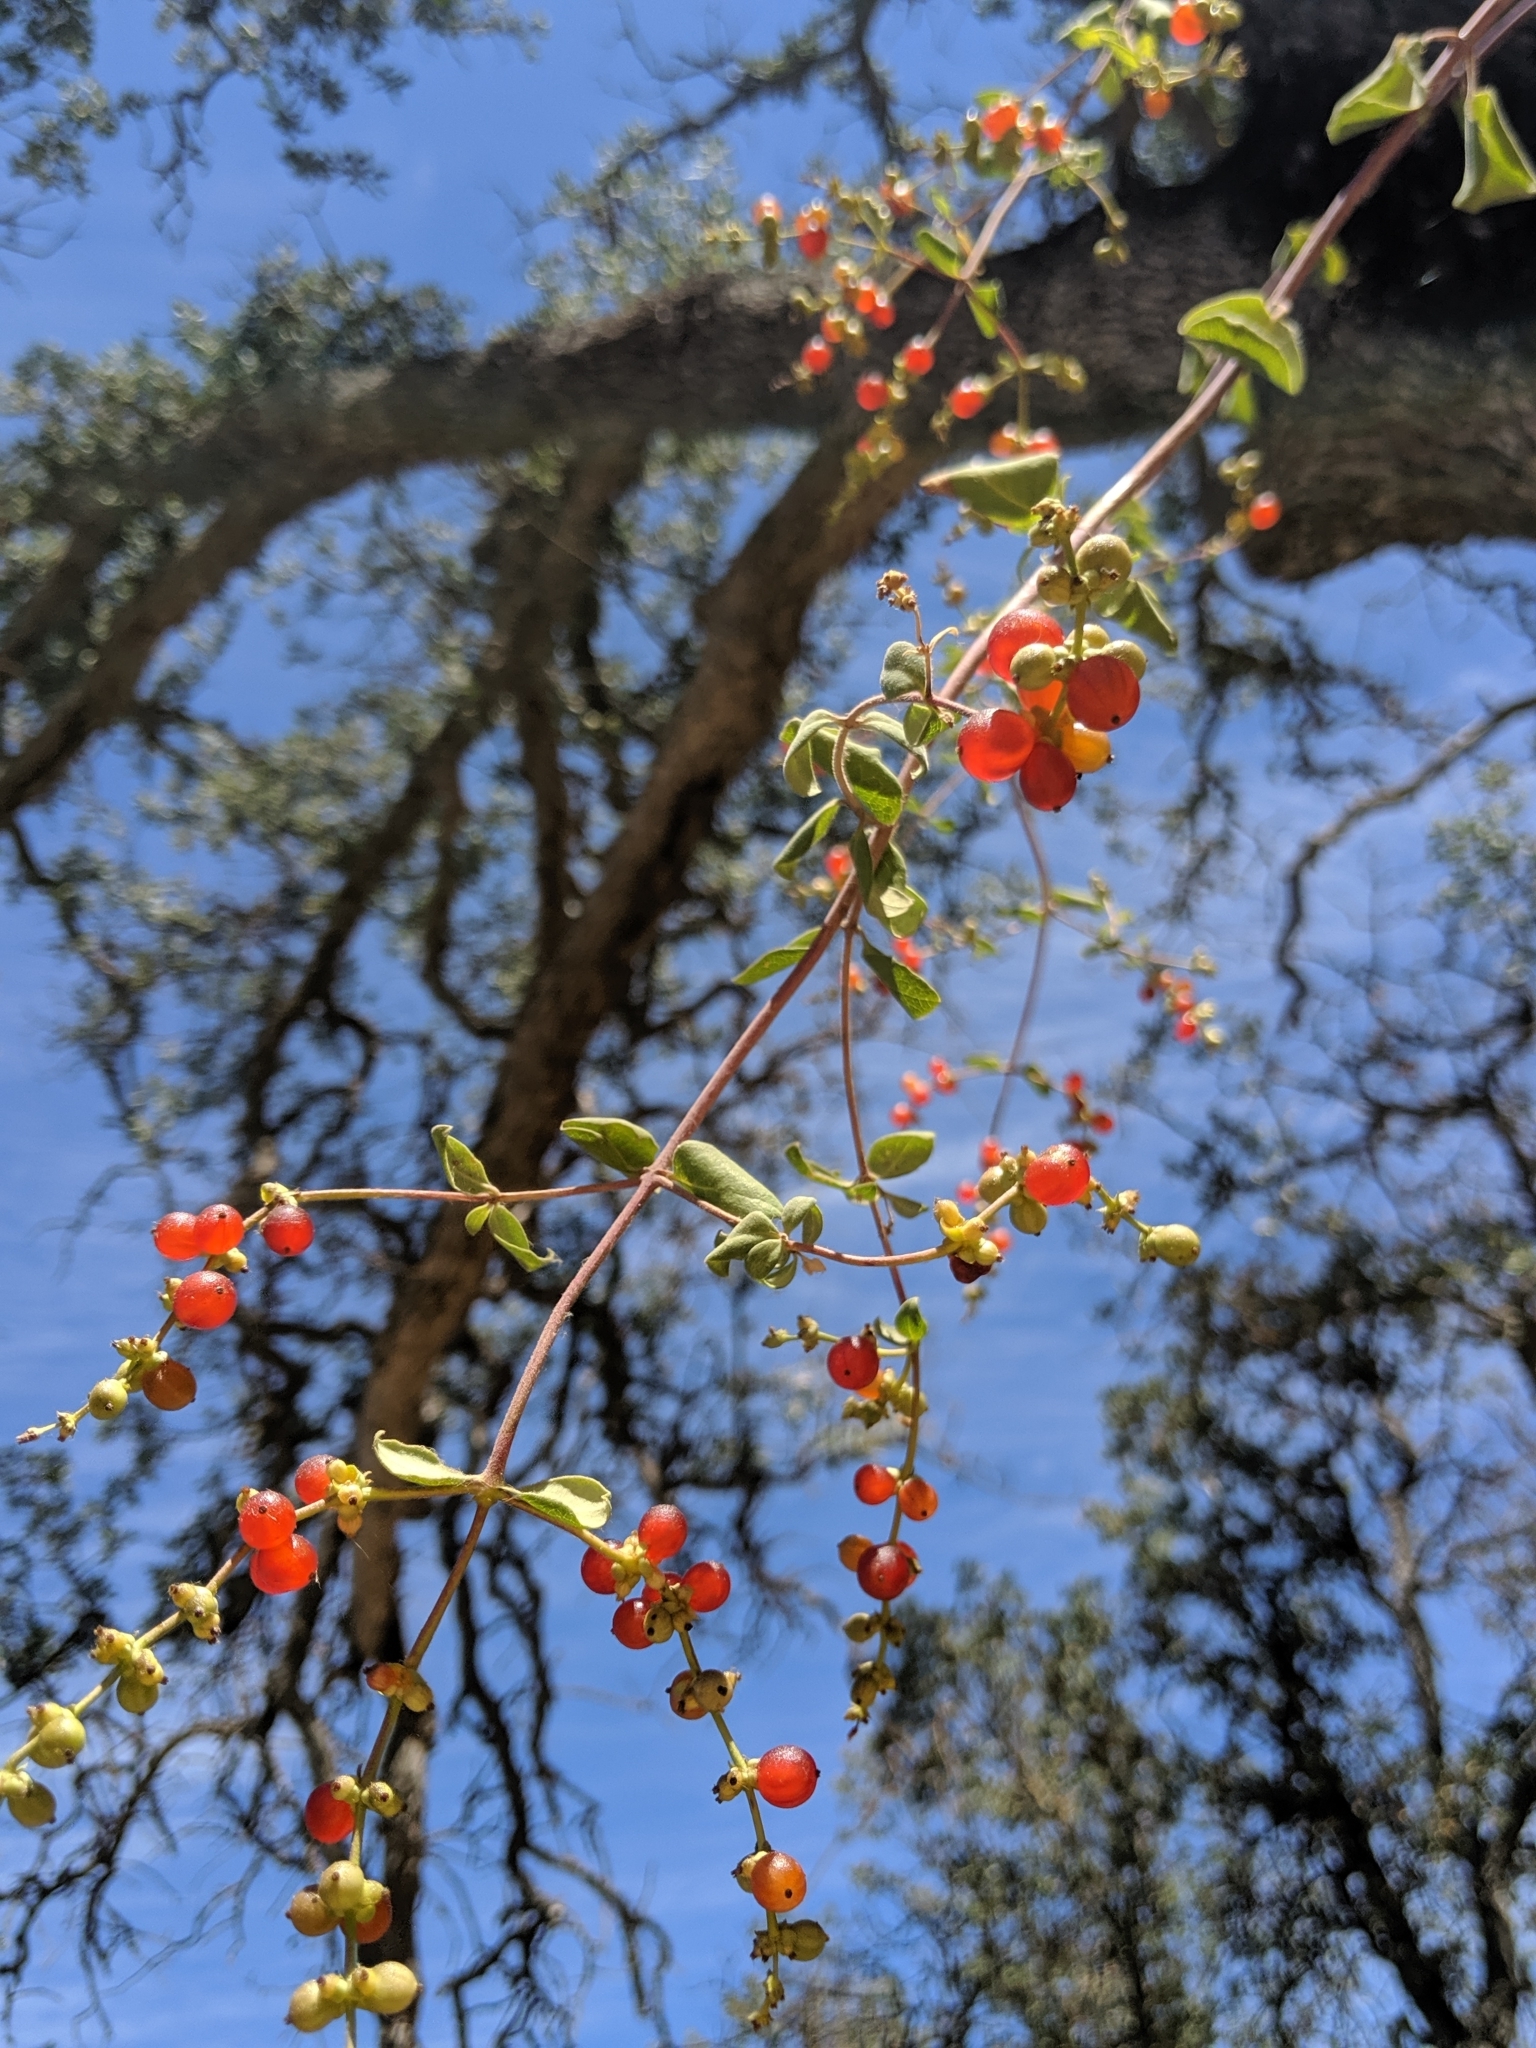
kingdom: Plantae
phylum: Tracheophyta
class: Magnoliopsida
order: Dipsacales
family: Caprifoliaceae
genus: Lonicera
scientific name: Lonicera subspicata
